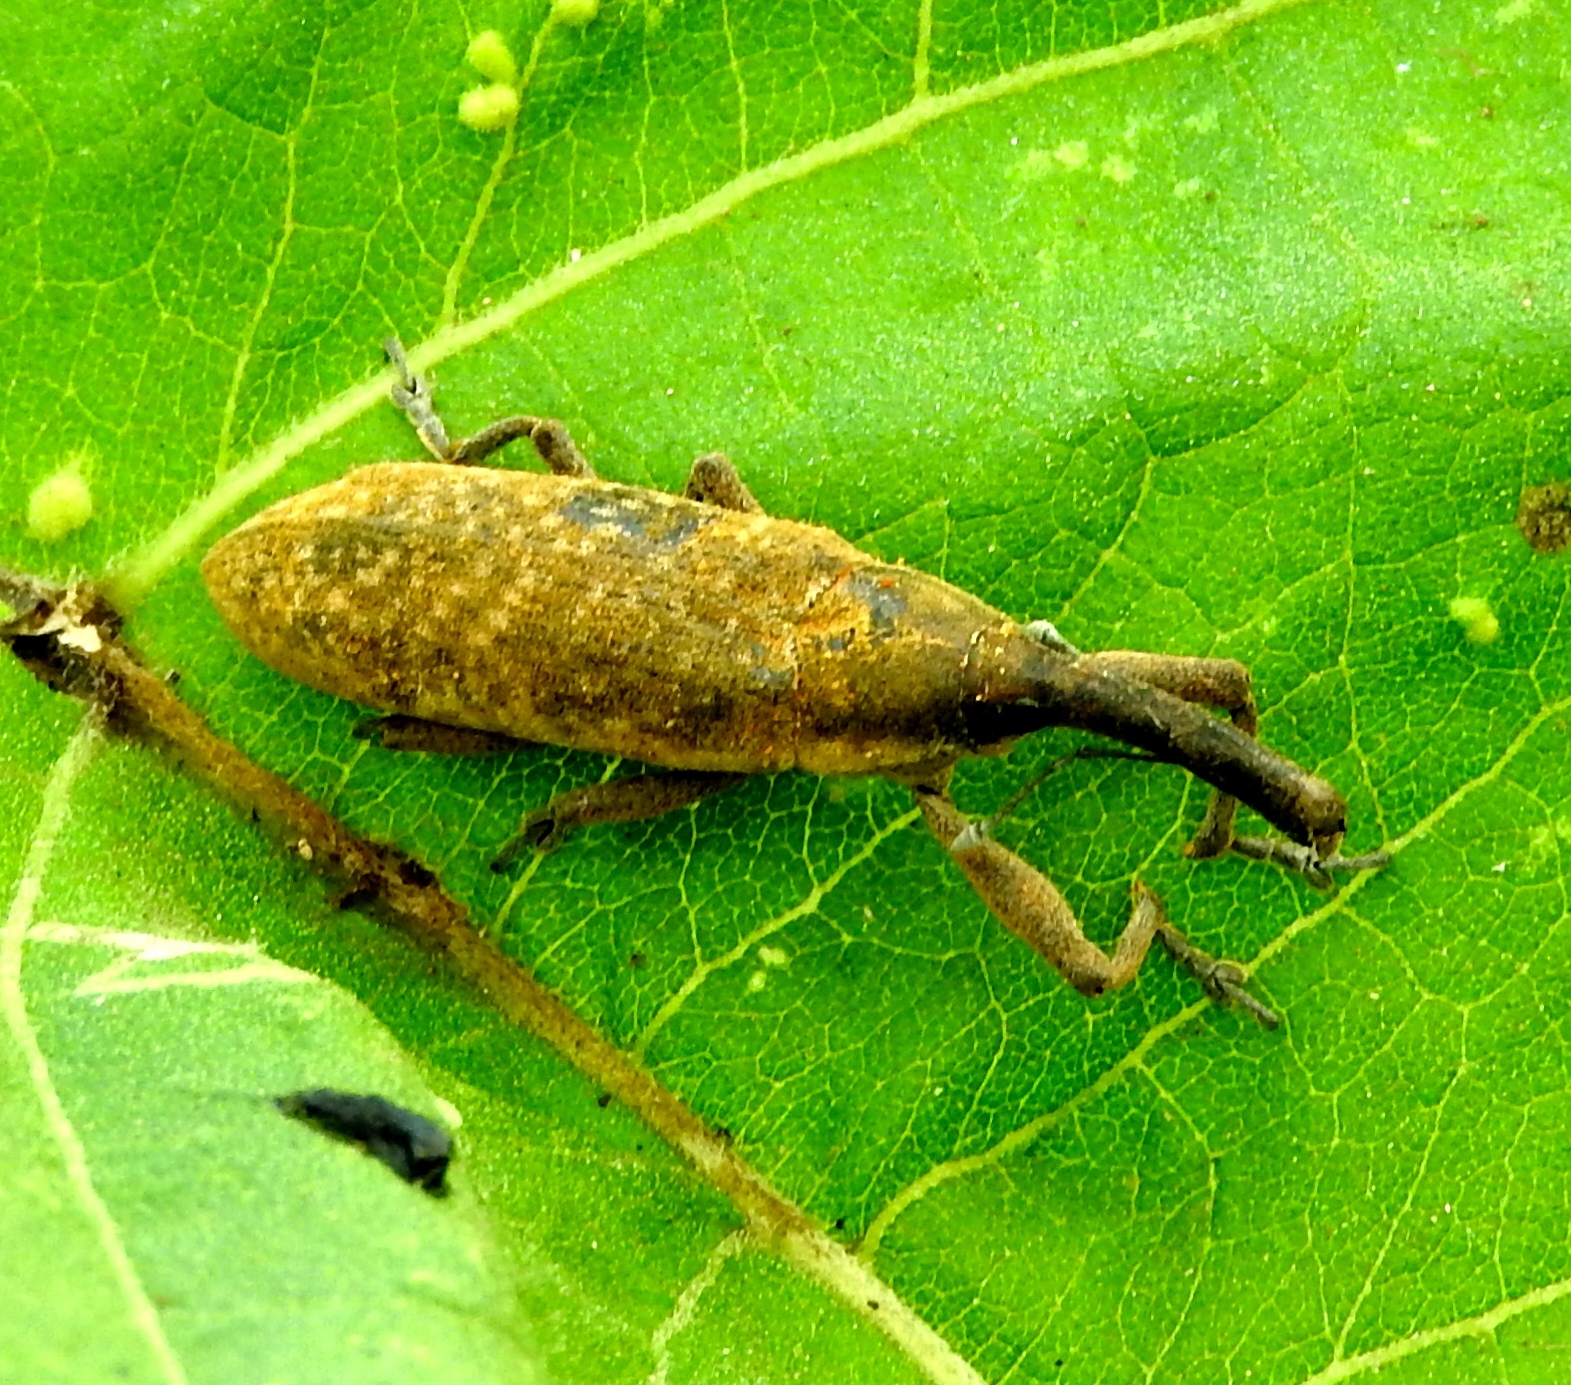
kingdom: Animalia
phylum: Arthropoda
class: Insecta
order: Coleoptera
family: Curculionidae
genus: Lixus
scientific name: Lixus
